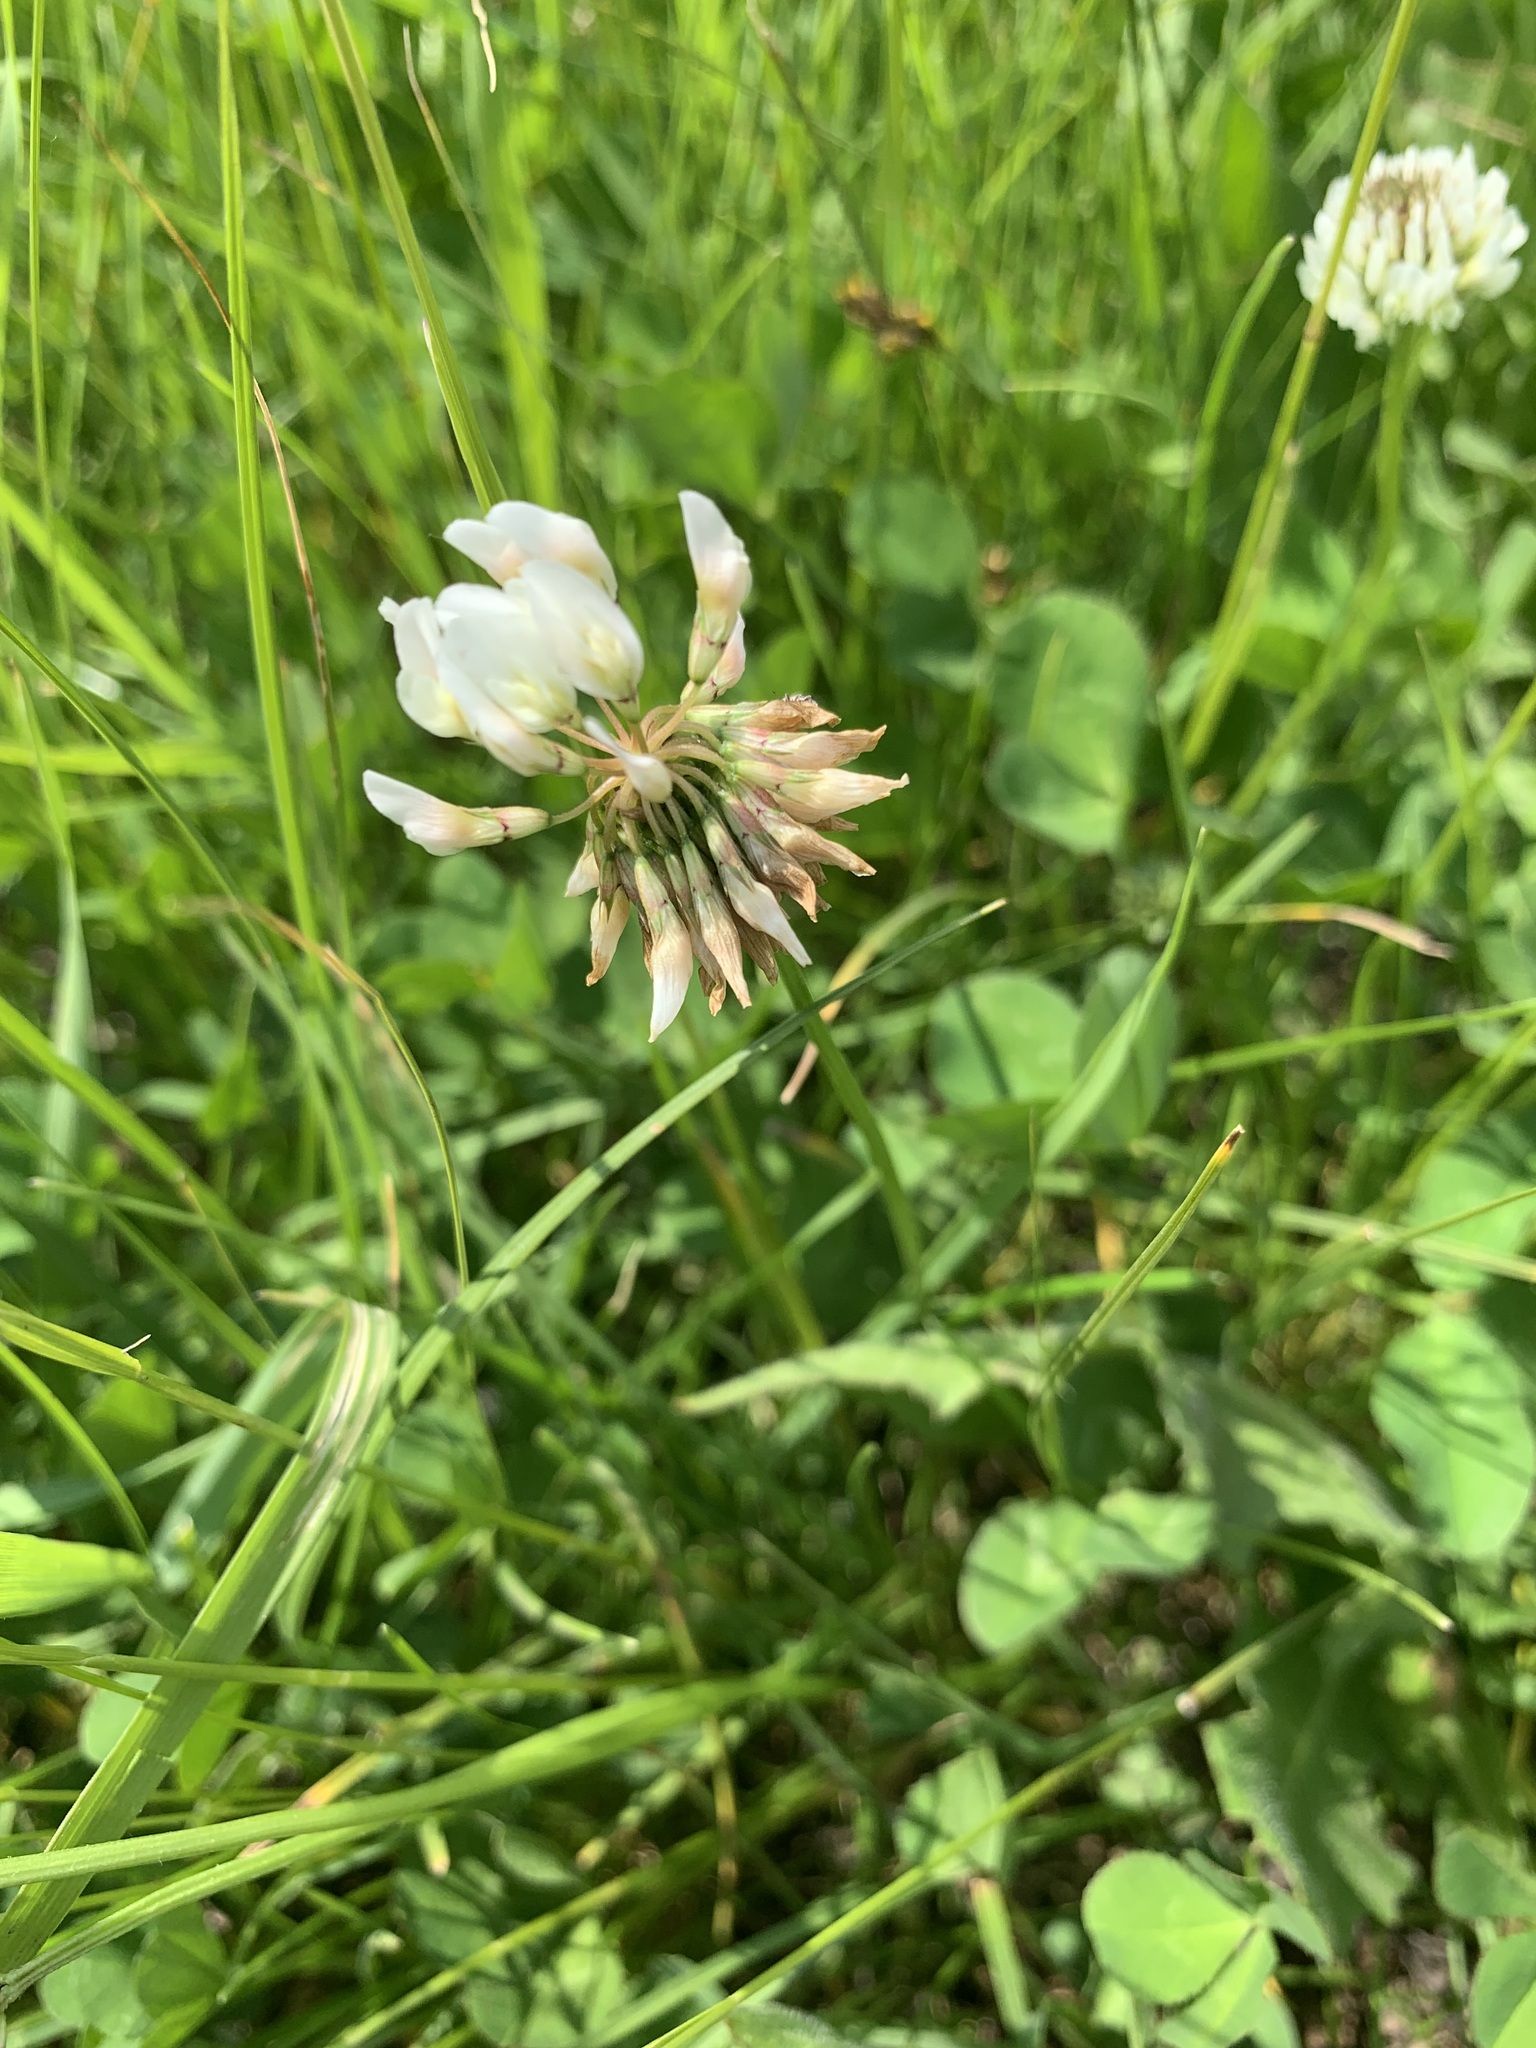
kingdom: Plantae
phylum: Tracheophyta
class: Magnoliopsida
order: Fabales
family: Fabaceae
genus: Trifolium
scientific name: Trifolium repens
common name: White clover
